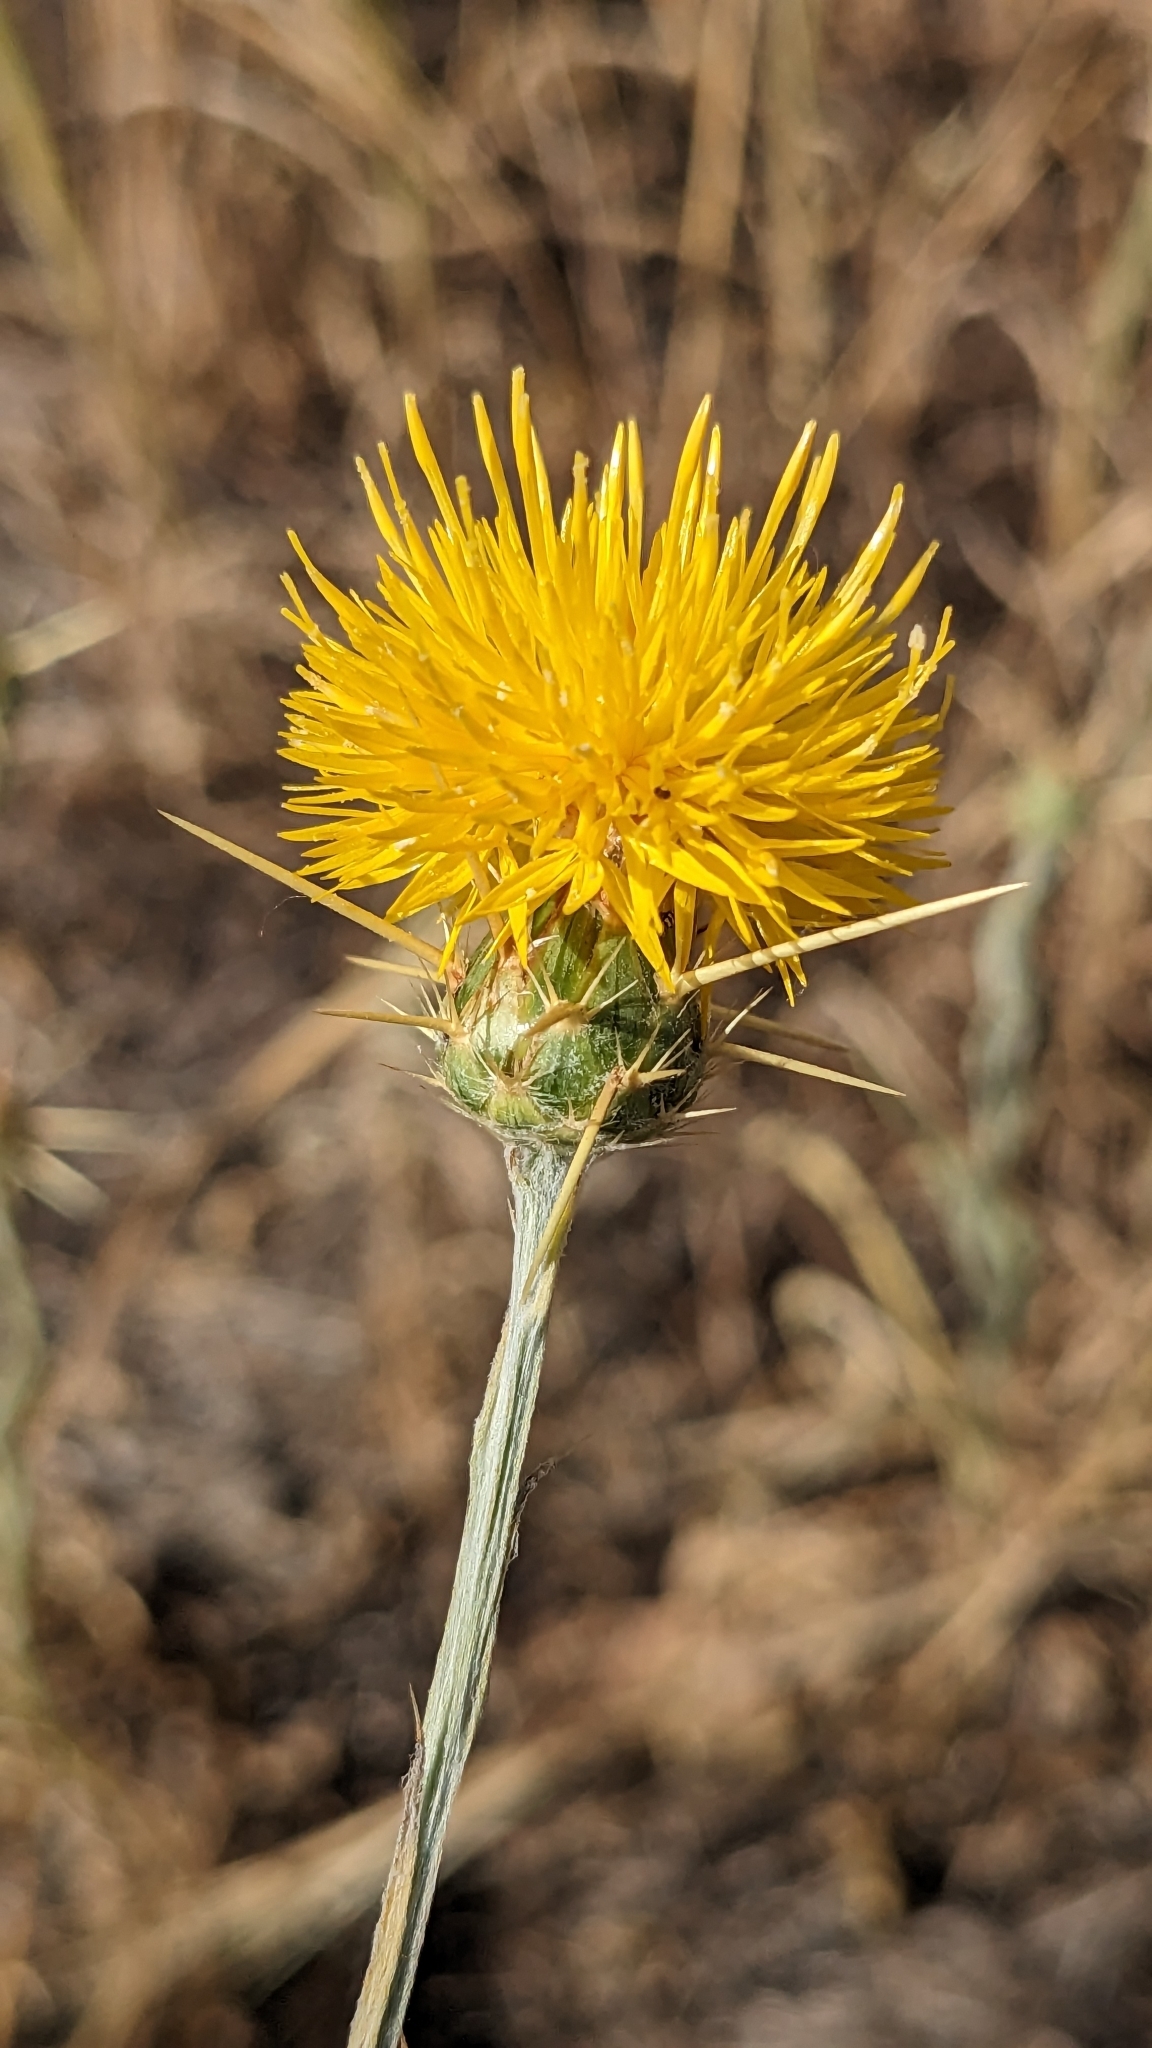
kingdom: Plantae
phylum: Tracheophyta
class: Magnoliopsida
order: Asterales
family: Asteraceae
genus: Centaurea
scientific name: Centaurea solstitialis
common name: Yellow star-thistle
